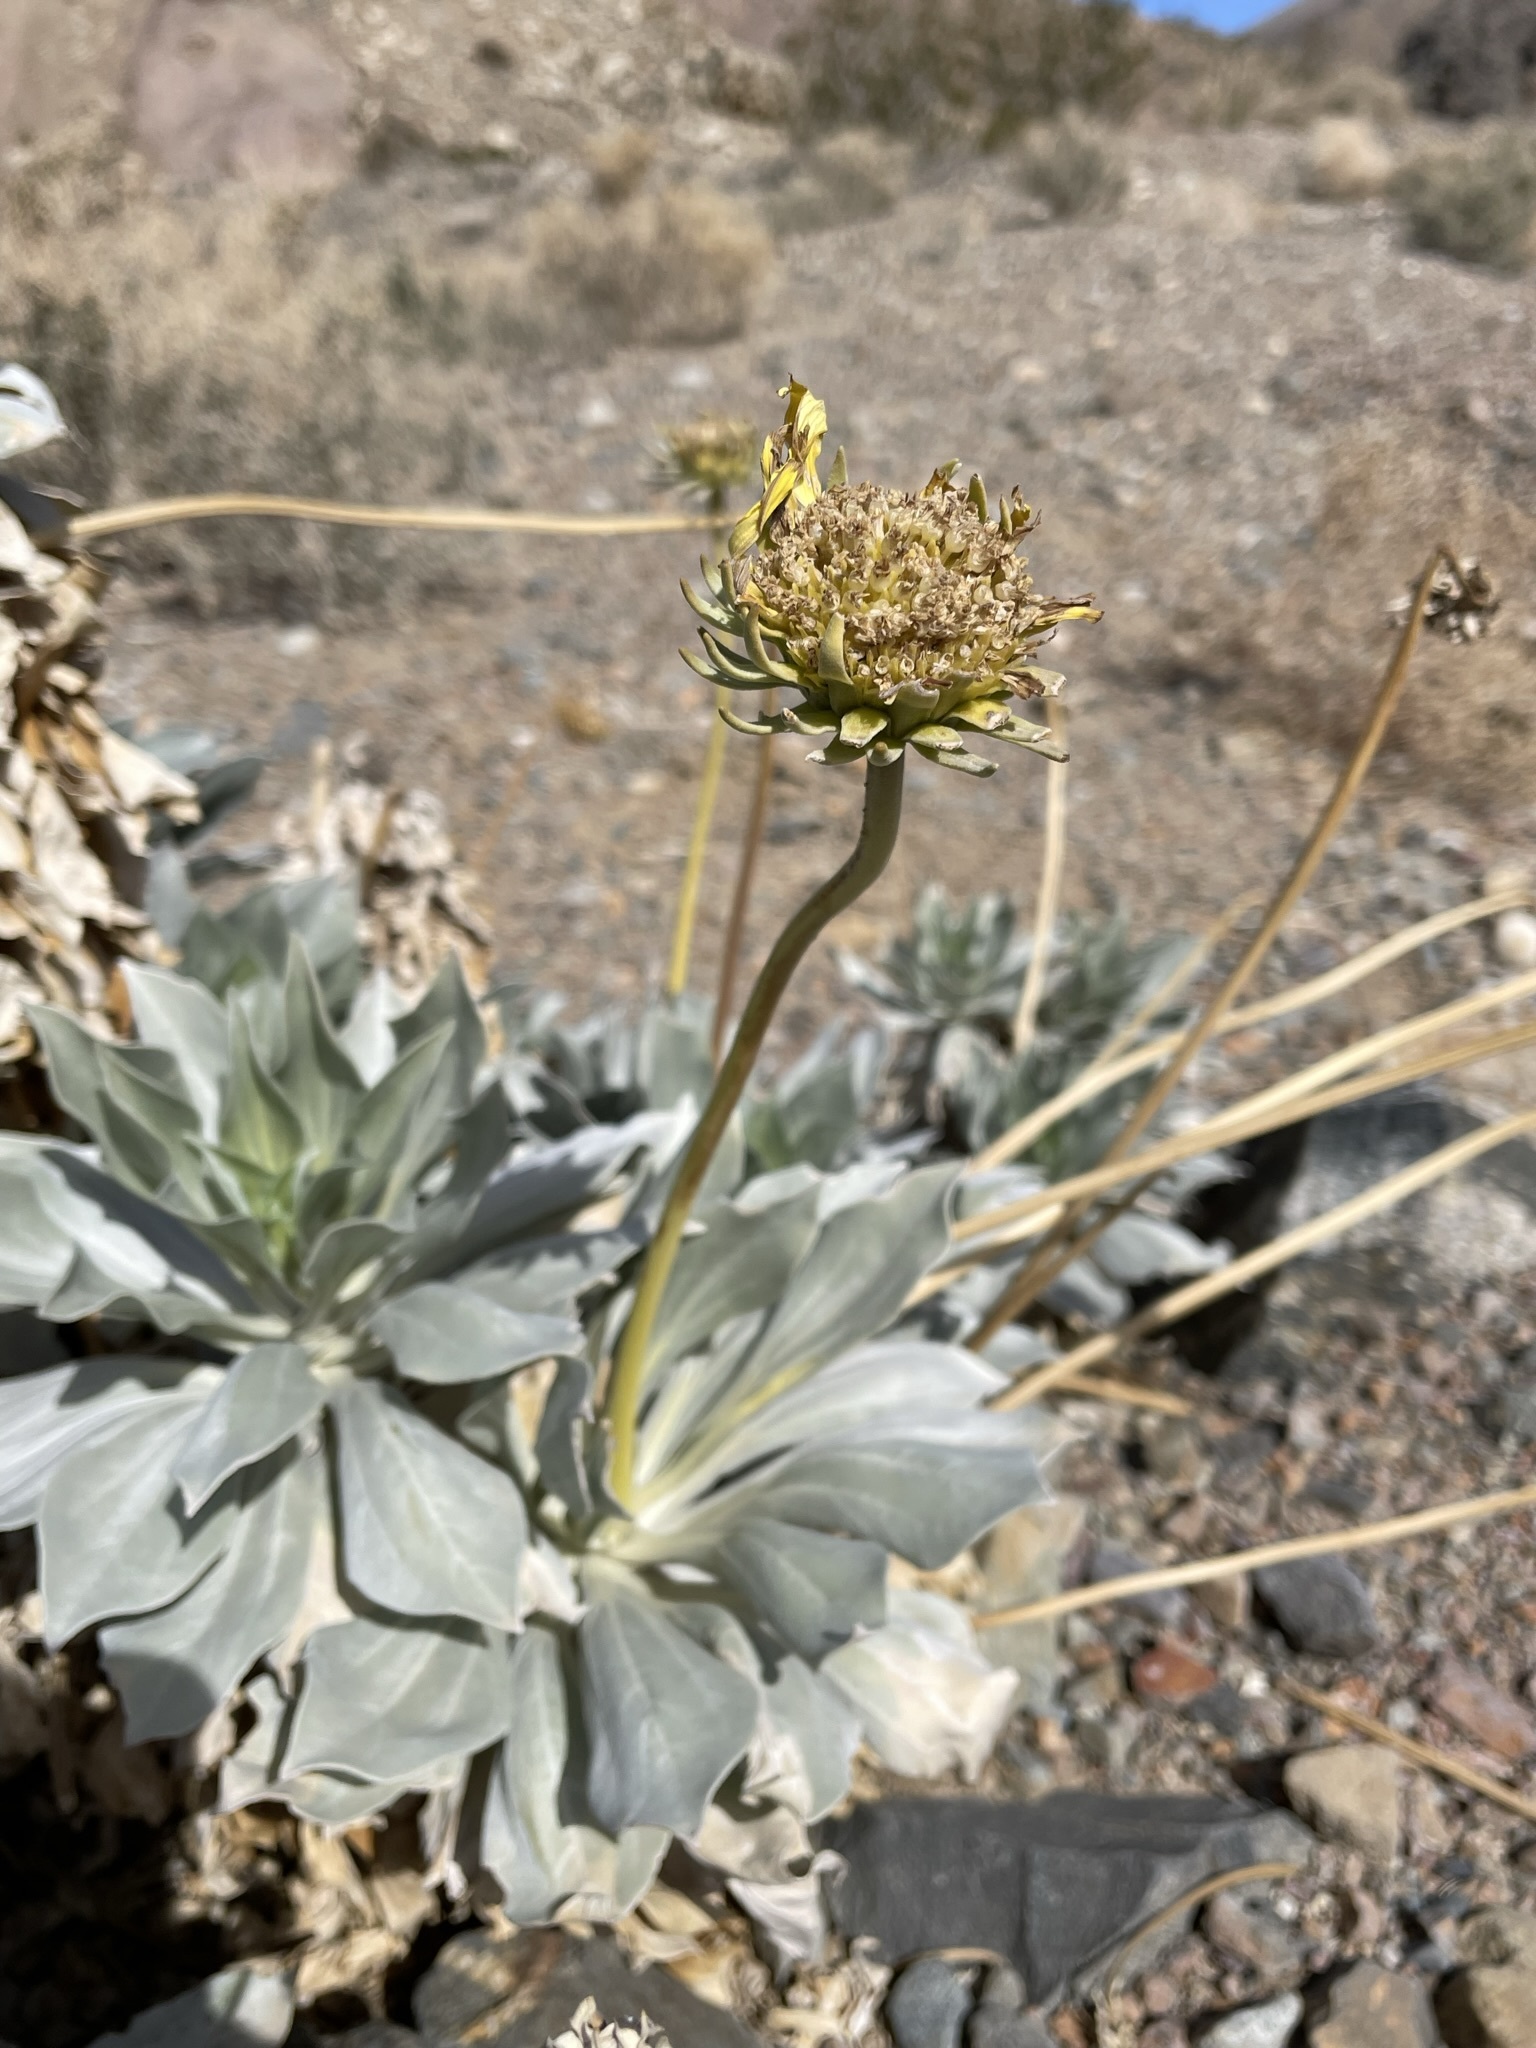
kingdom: Plantae
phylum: Tracheophyta
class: Magnoliopsida
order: Asterales
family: Asteraceae
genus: Enceliopsis
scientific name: Enceliopsis covillei
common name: Panamint daisy
